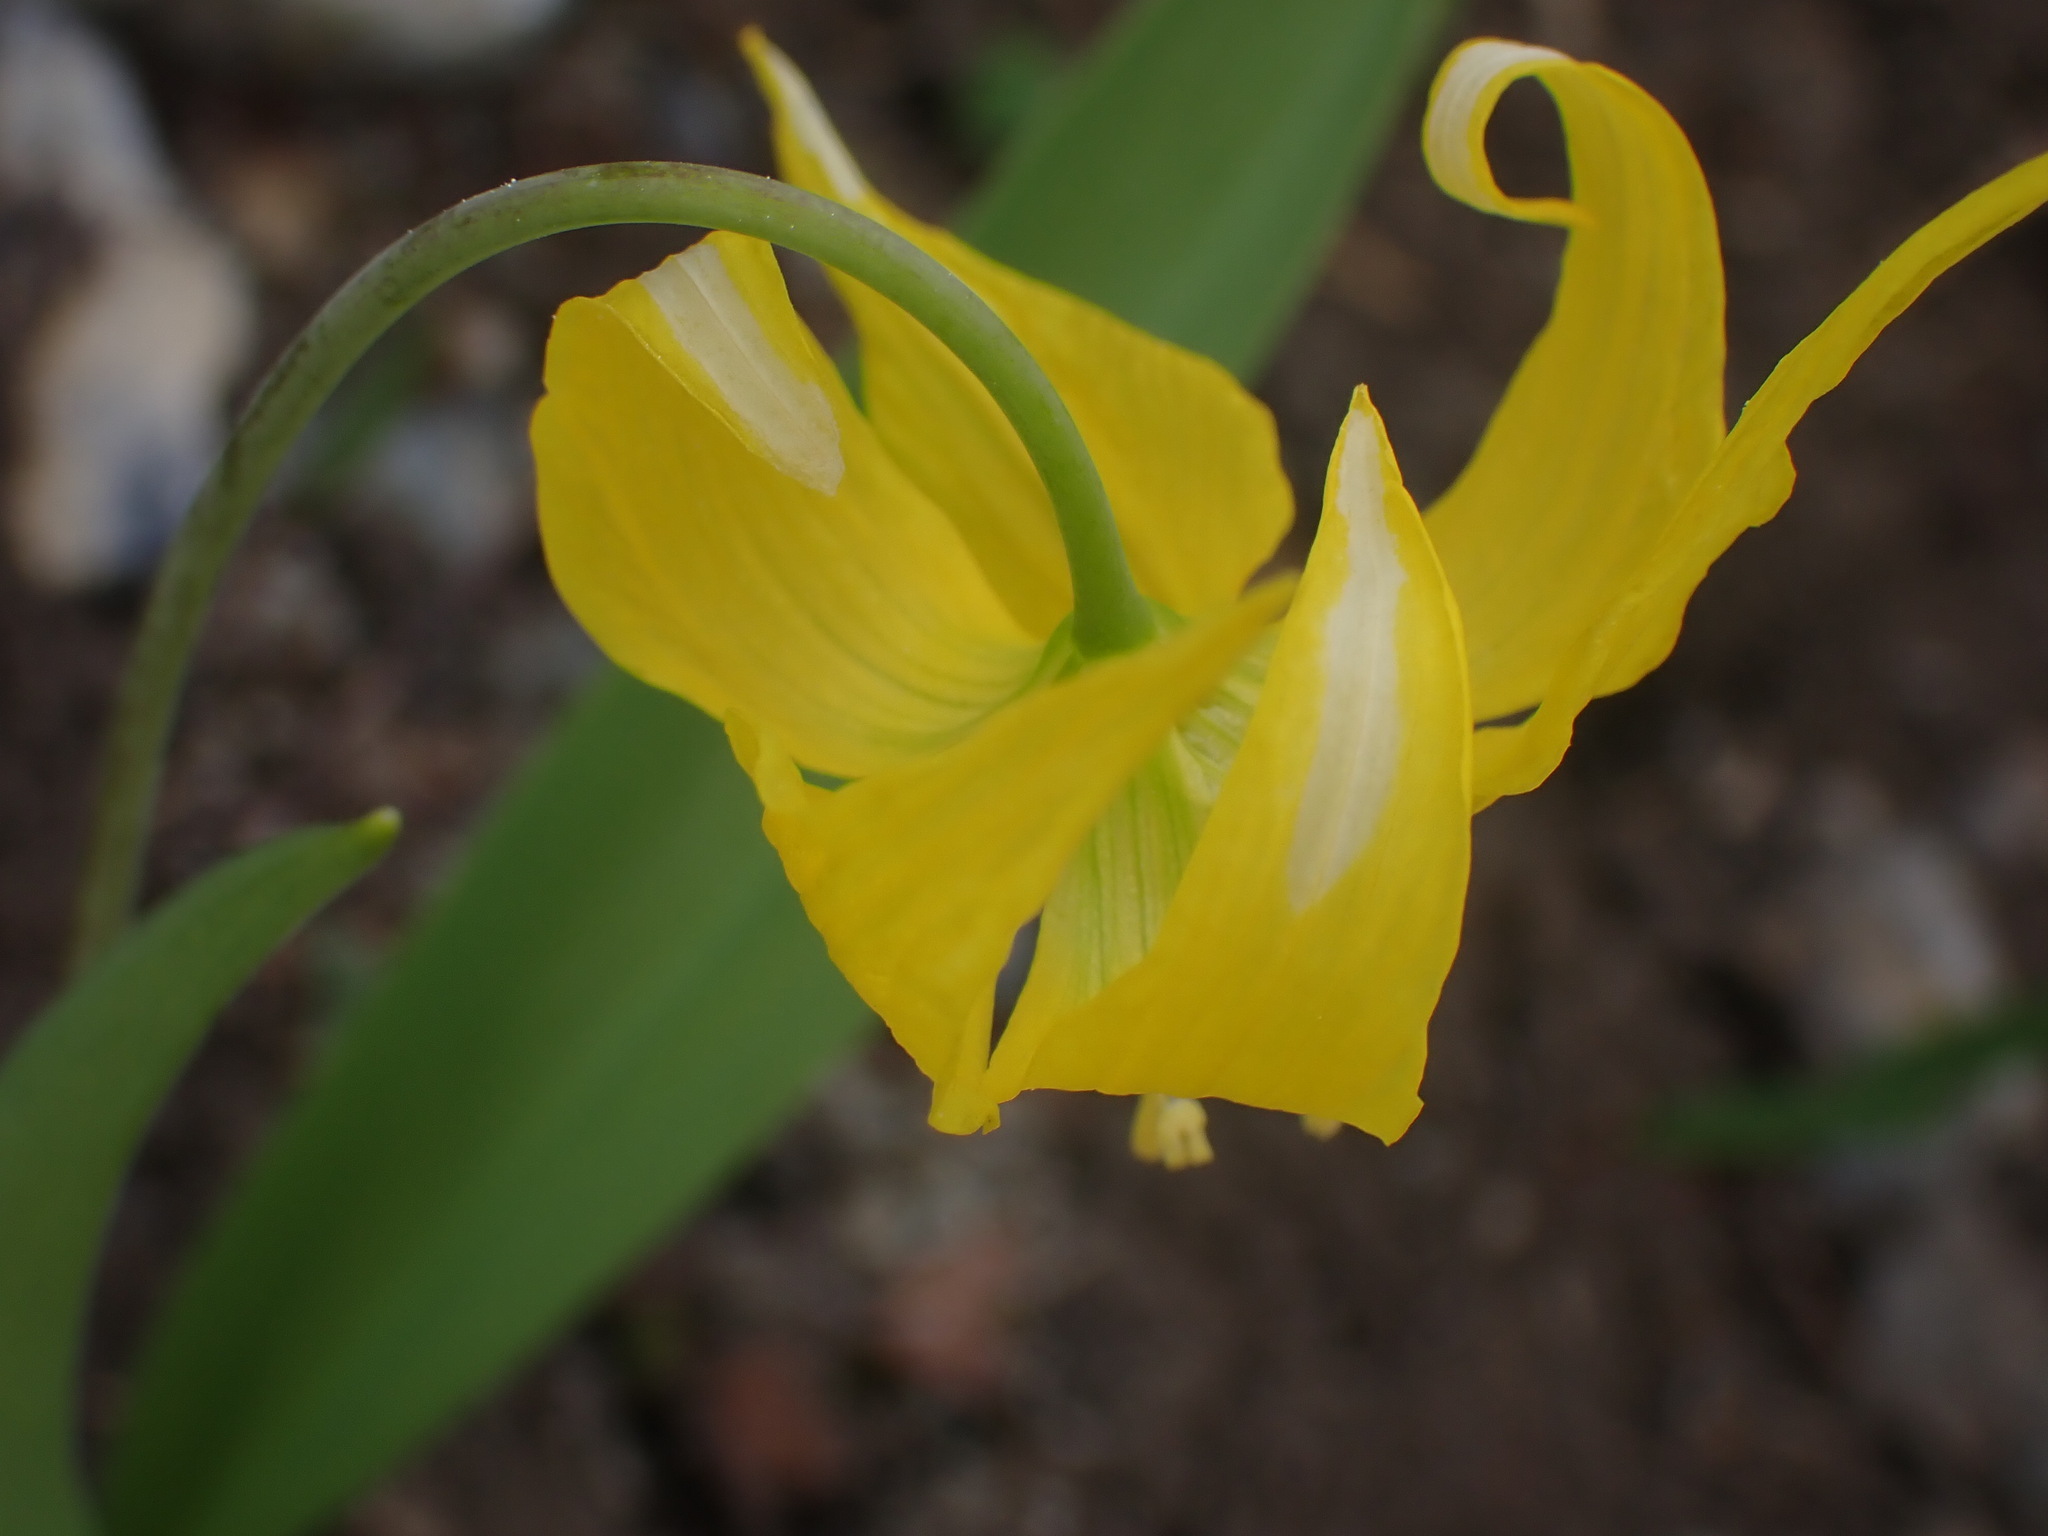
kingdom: Plantae
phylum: Tracheophyta
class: Liliopsida
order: Liliales
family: Liliaceae
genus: Erythronium
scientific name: Erythronium grandiflorum
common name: Avalanche-lily
